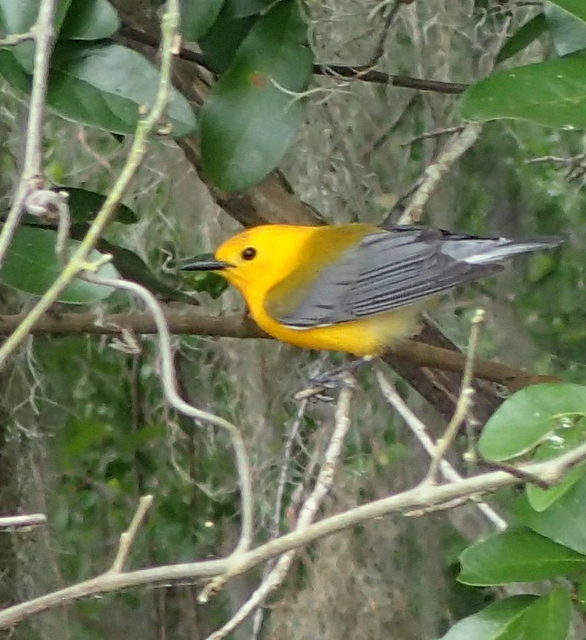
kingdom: Animalia
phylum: Chordata
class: Aves
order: Passeriformes
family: Parulidae
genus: Protonotaria
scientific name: Protonotaria citrea
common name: Prothonotary warbler
